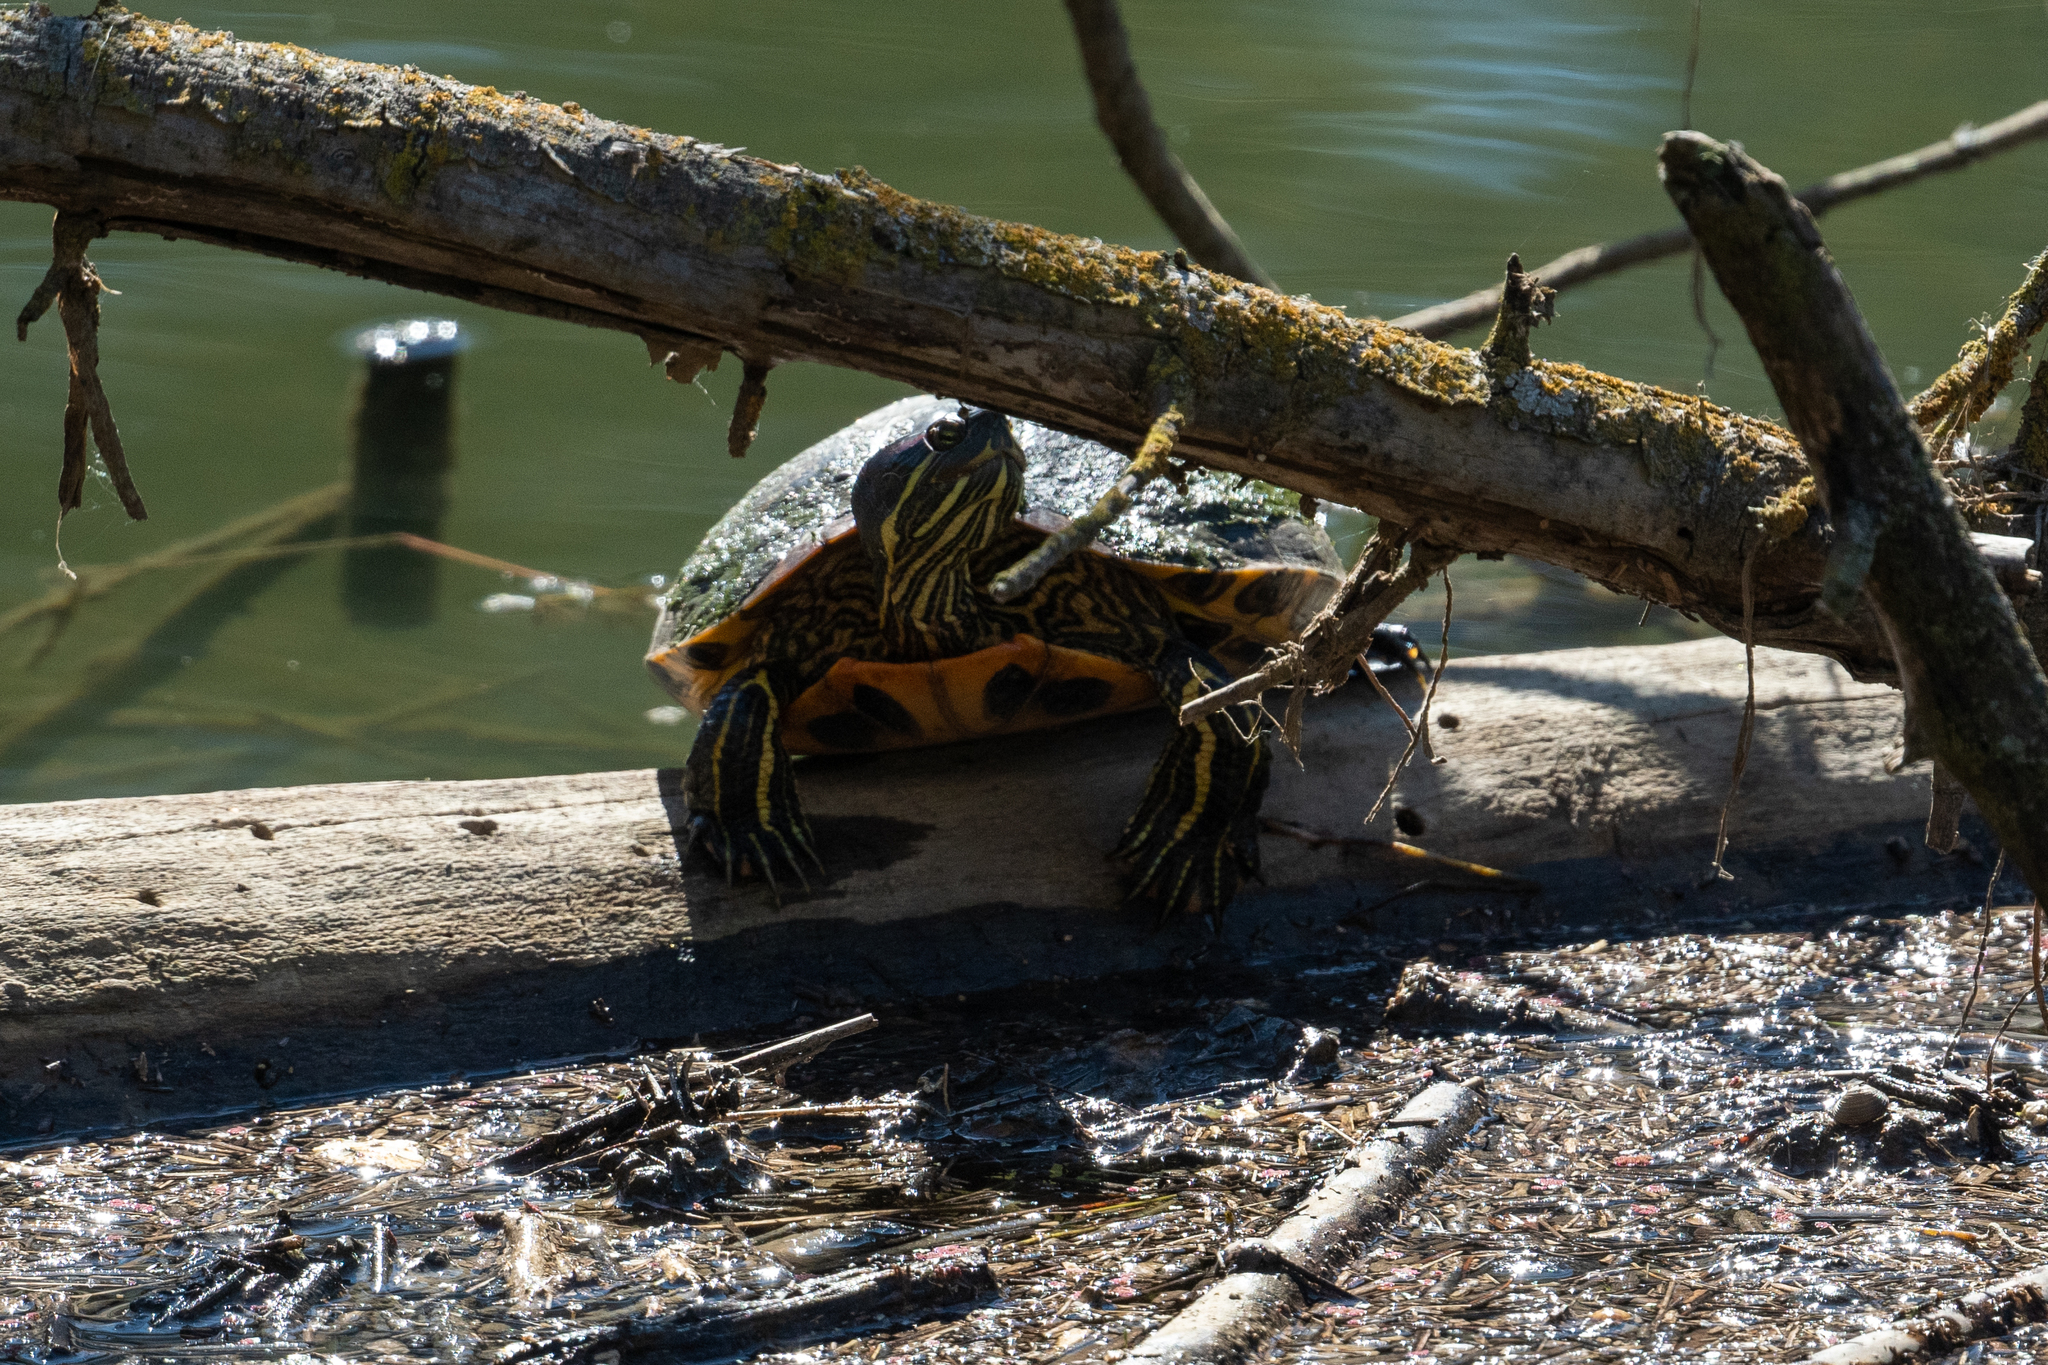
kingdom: Animalia
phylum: Chordata
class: Testudines
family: Emydidae
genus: Trachemys
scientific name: Trachemys scripta
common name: Slider
